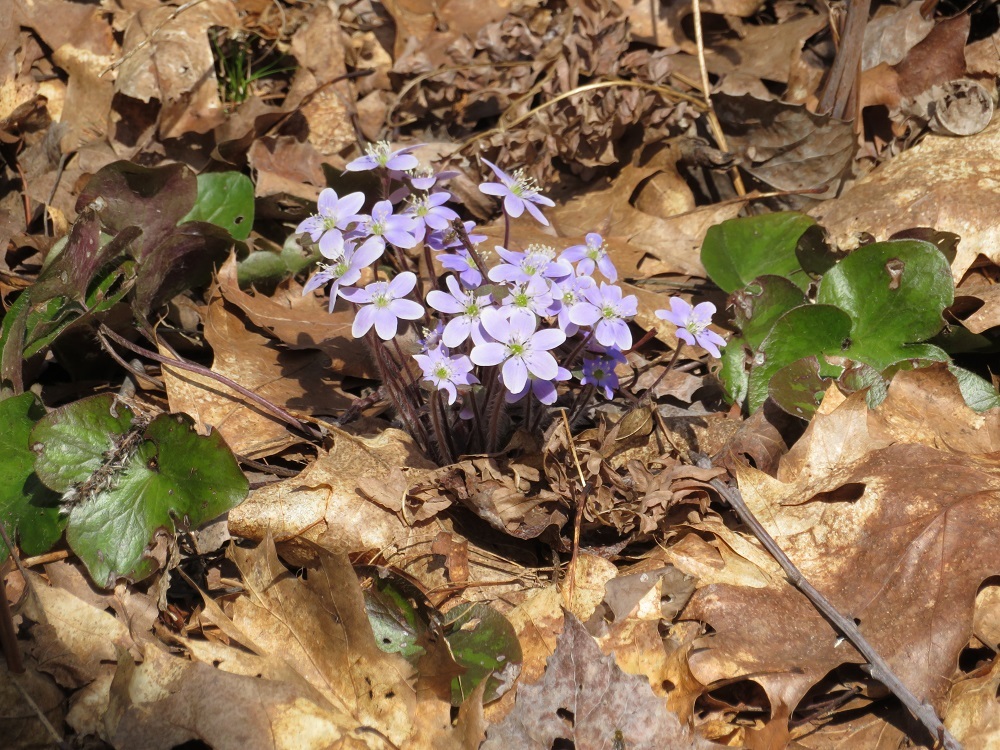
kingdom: Plantae
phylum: Tracheophyta
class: Magnoliopsida
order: Ranunculales
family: Ranunculaceae
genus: Hepatica
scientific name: Hepatica americana
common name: American hepatica
